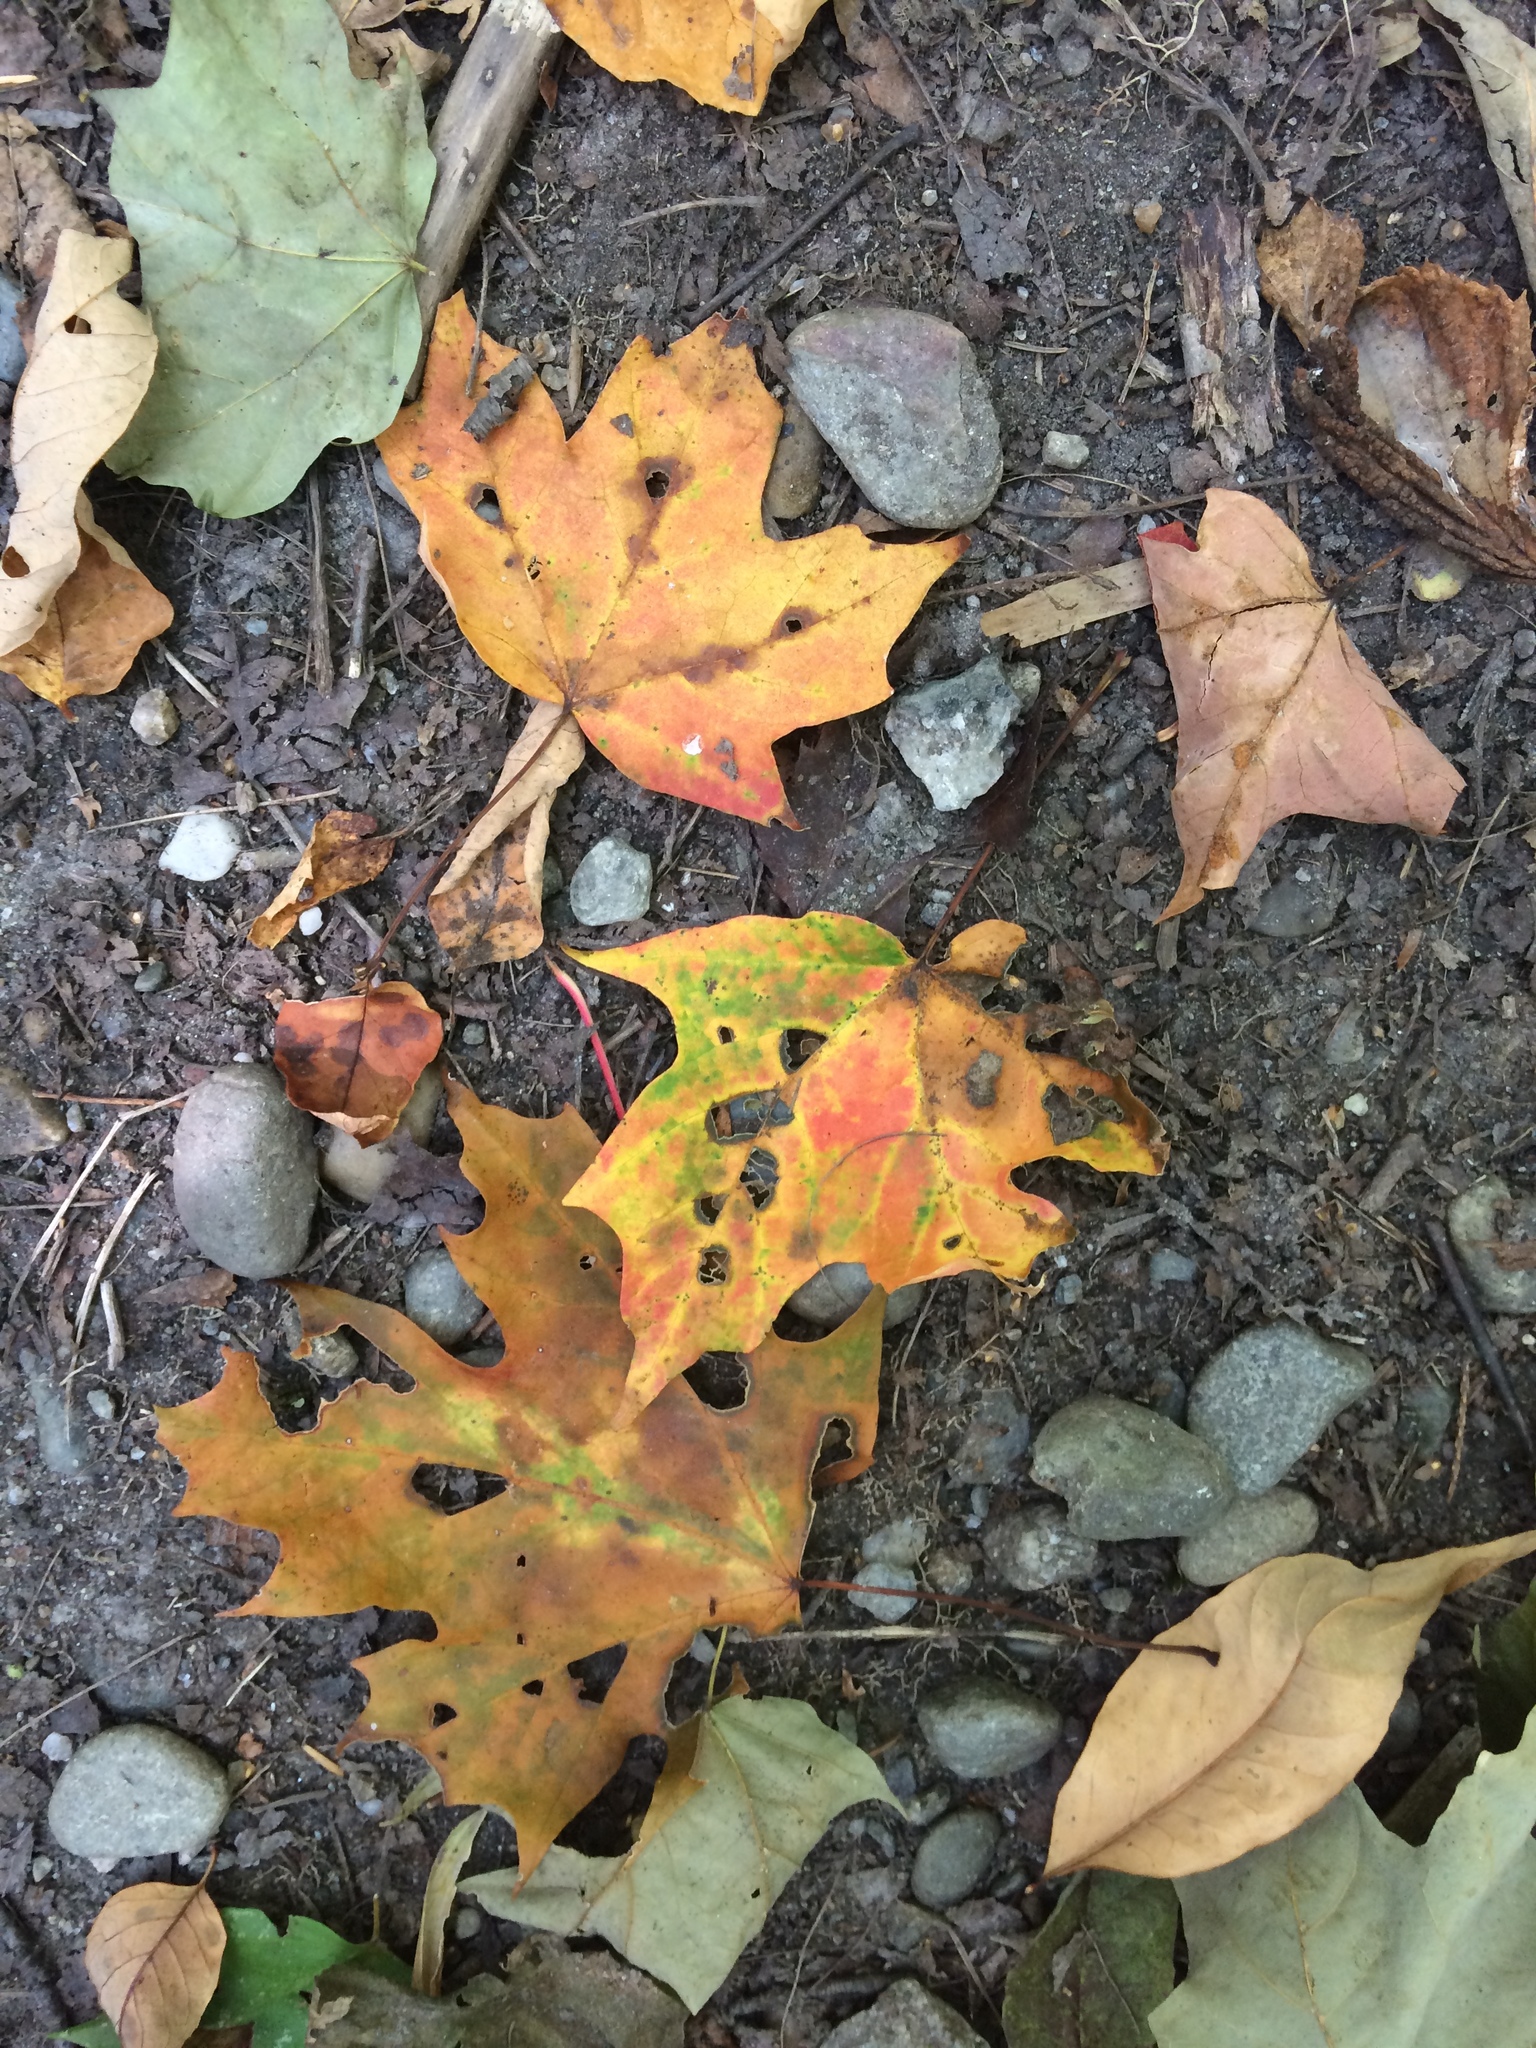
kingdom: Plantae
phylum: Tracheophyta
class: Magnoliopsida
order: Sapindales
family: Sapindaceae
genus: Acer
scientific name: Acer saccharum
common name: Sugar maple
